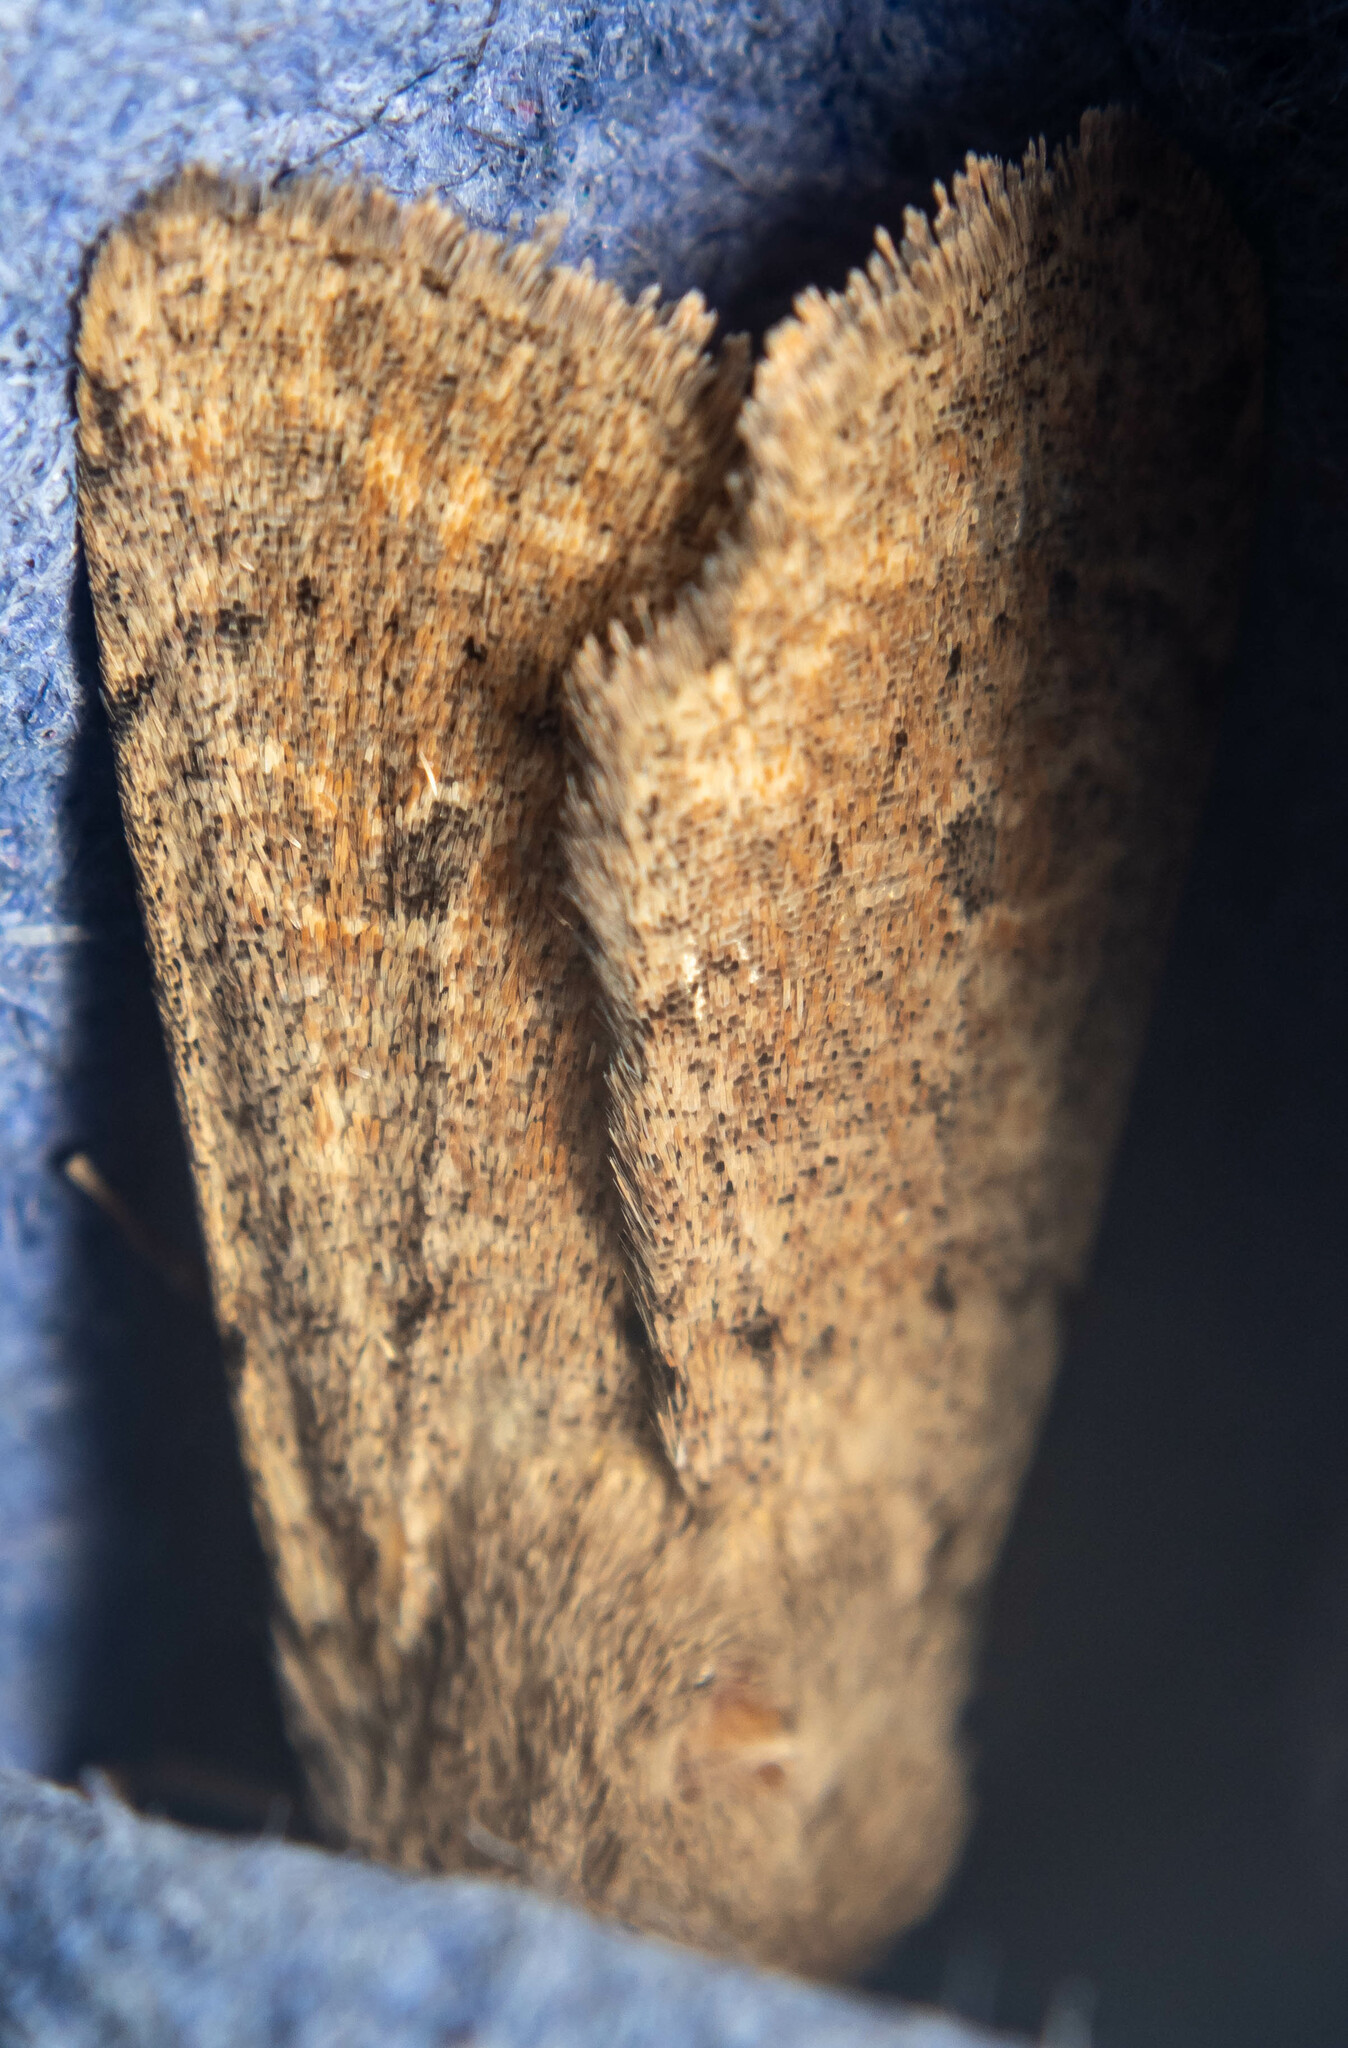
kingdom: Animalia
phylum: Arthropoda
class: Insecta
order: Lepidoptera
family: Noctuidae
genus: Orthosia
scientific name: Orthosia cruda
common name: Small quaker
